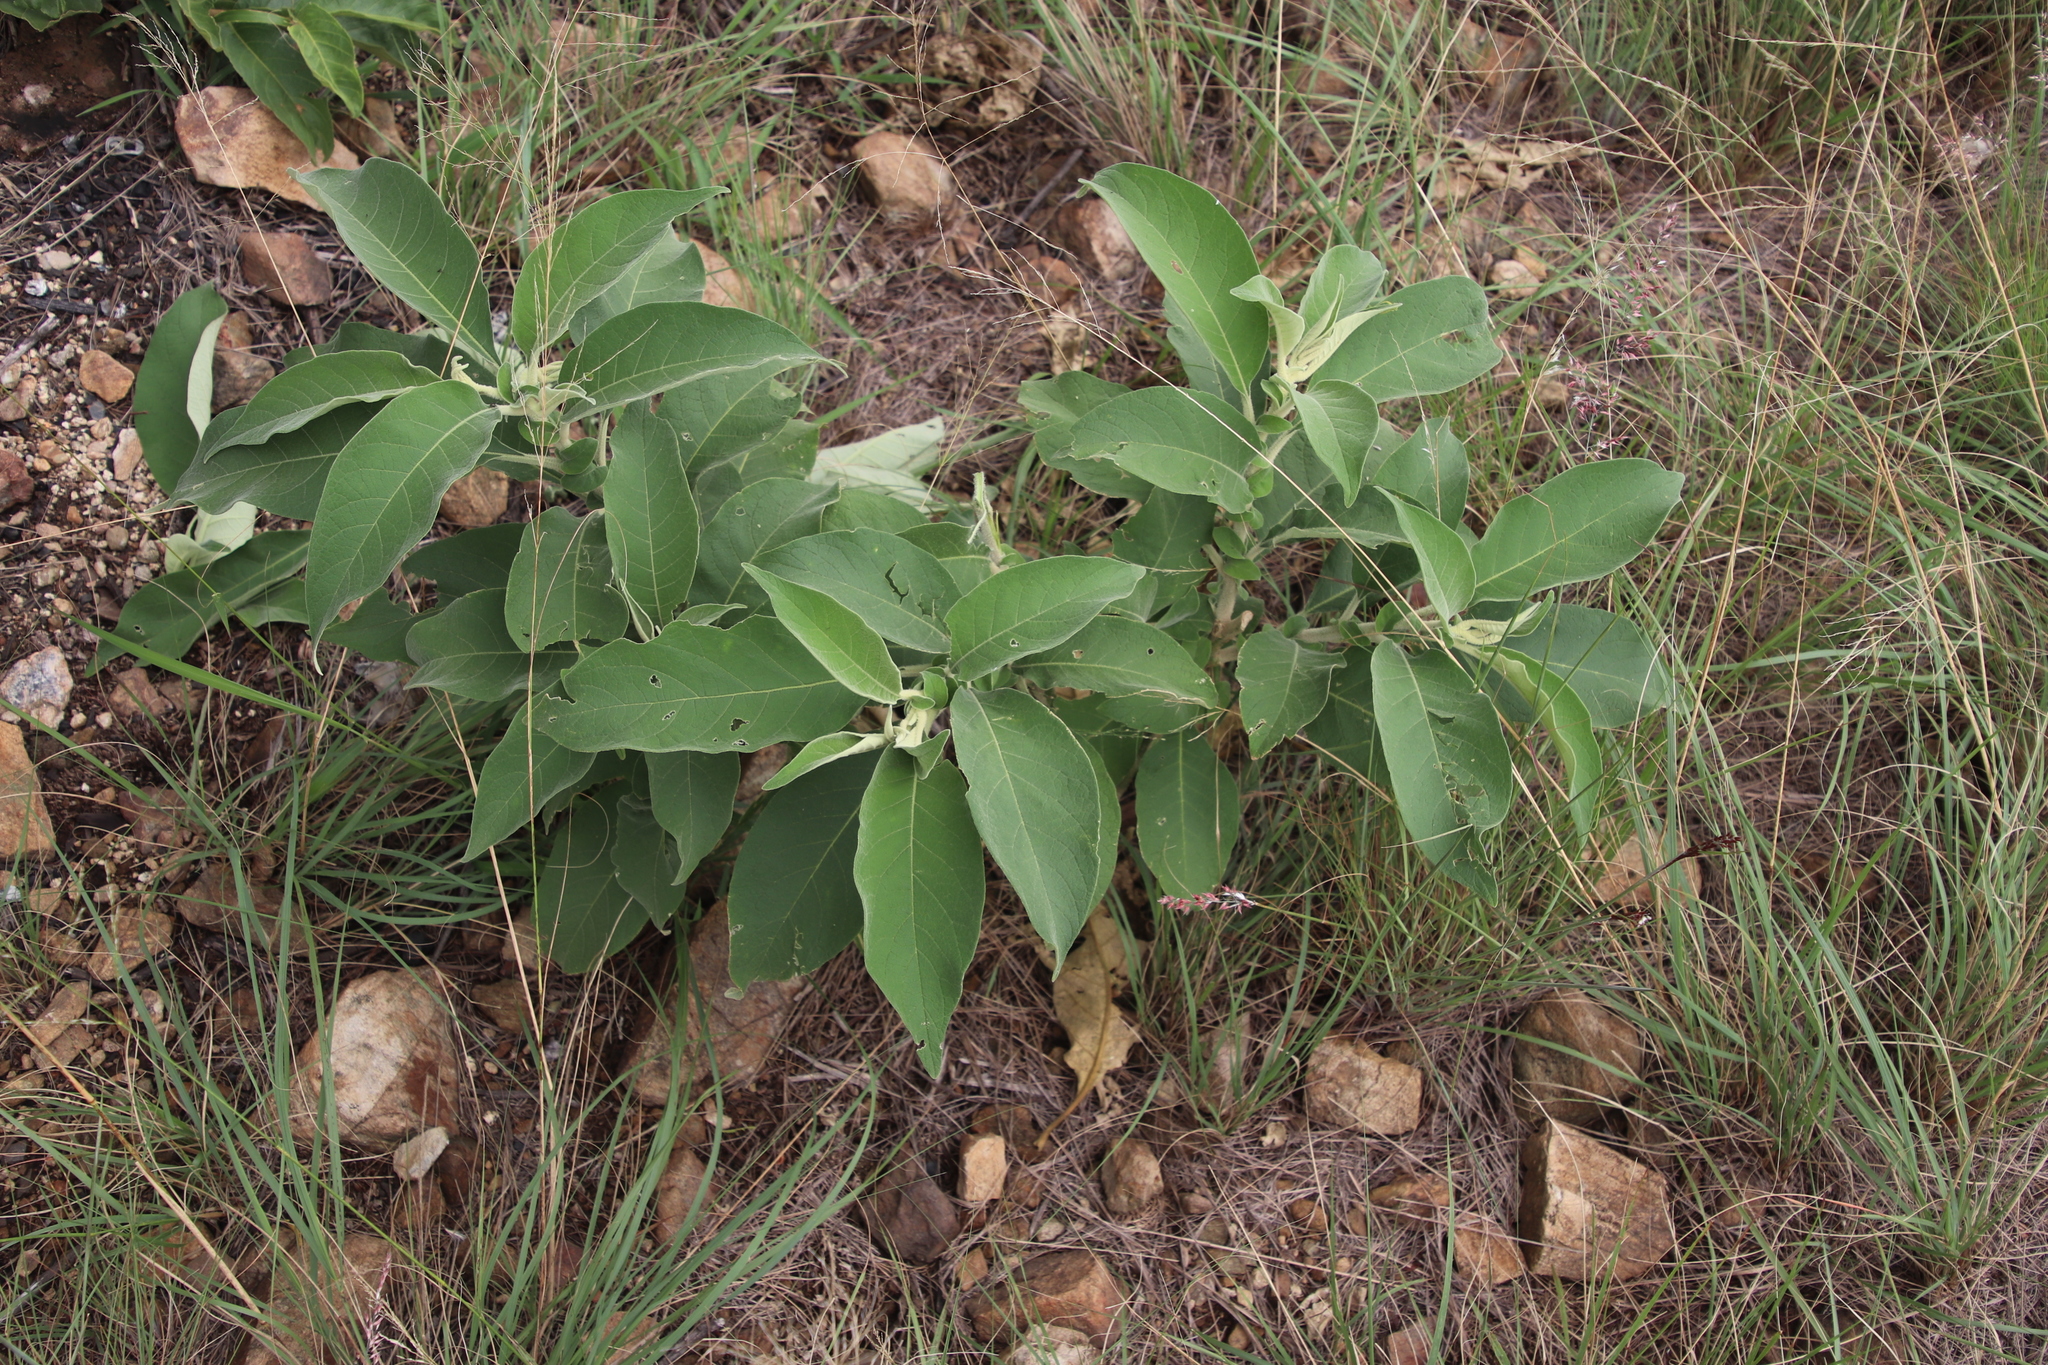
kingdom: Plantae
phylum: Tracheophyta
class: Magnoliopsida
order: Solanales
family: Solanaceae
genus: Solanum
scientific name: Solanum mauritianum
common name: Earleaf nightshade
